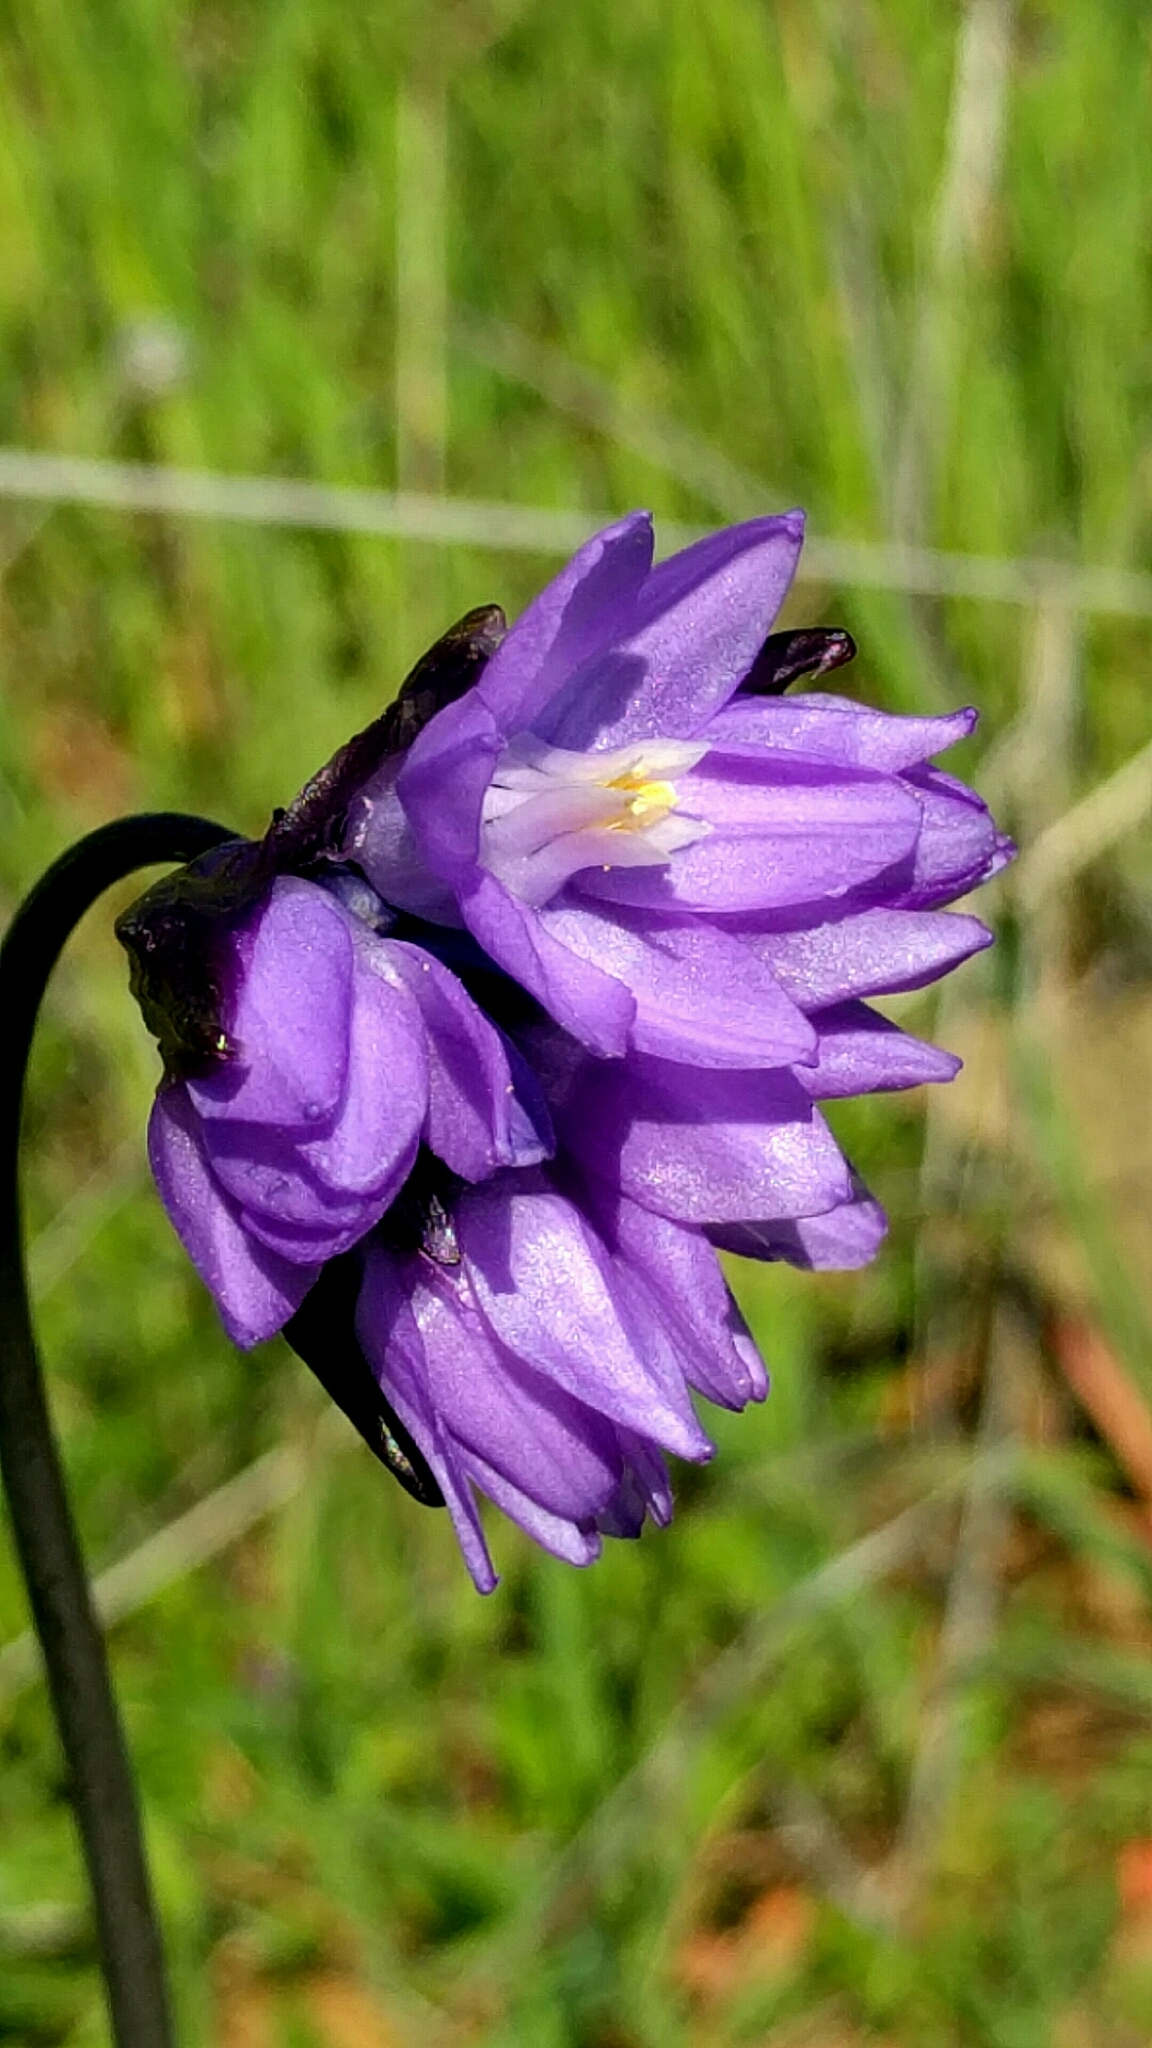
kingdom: Plantae
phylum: Tracheophyta
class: Liliopsida
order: Asparagales
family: Asparagaceae
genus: Dipterostemon
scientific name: Dipterostemon capitatus
